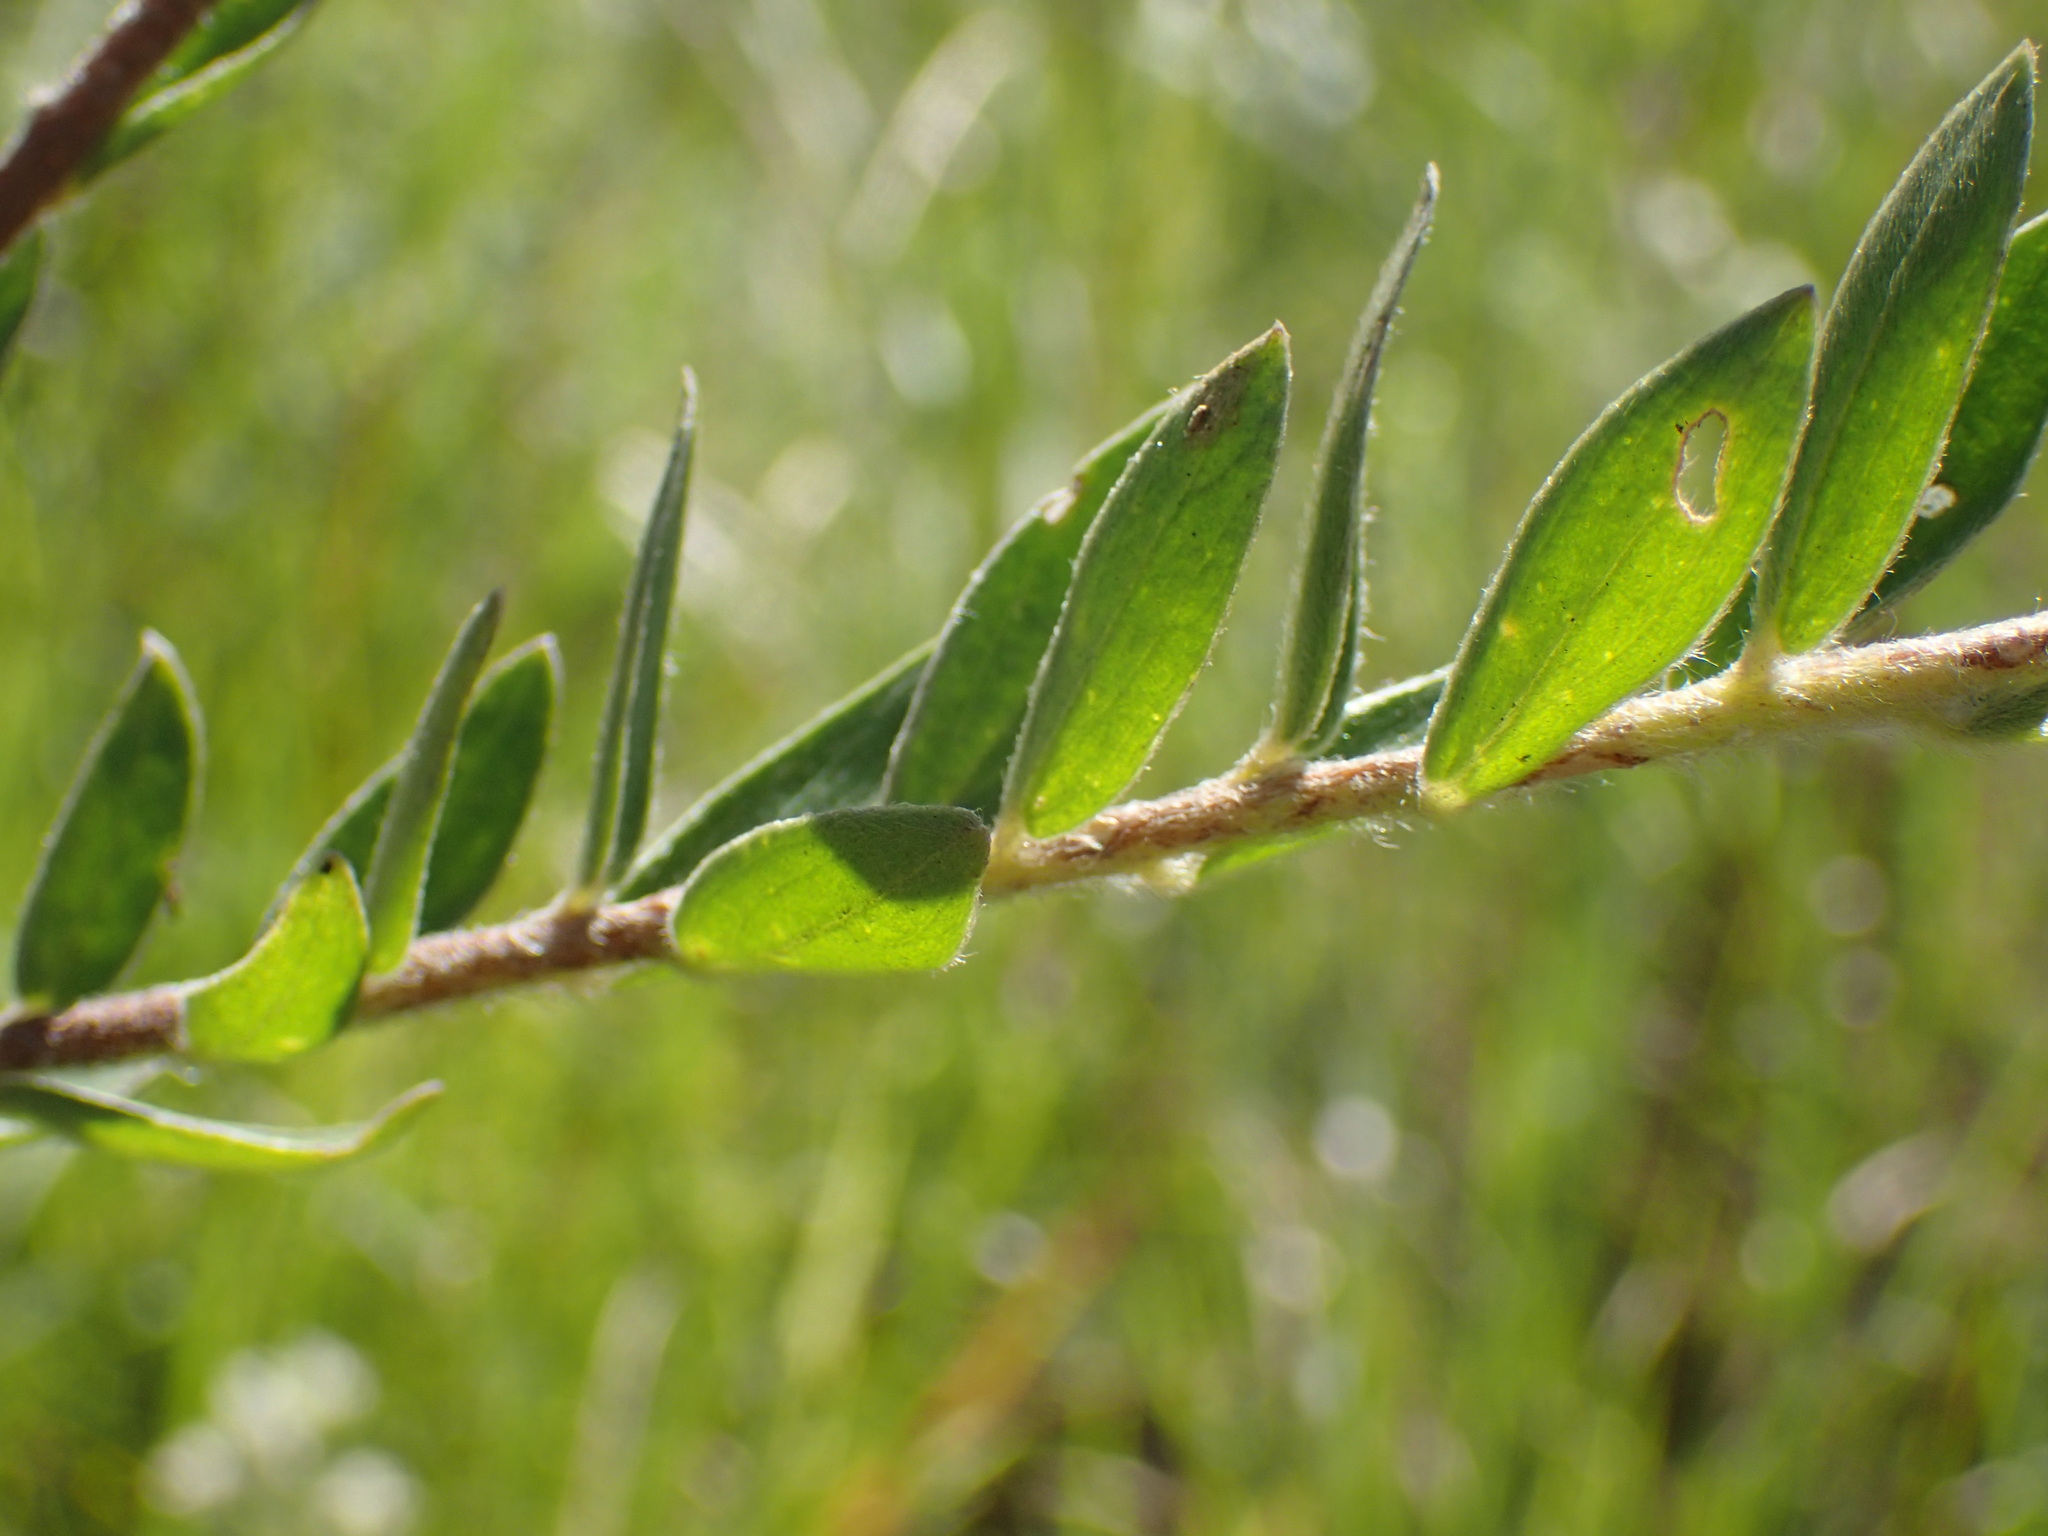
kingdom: Plantae
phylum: Tracheophyta
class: Magnoliopsida
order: Malvales
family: Thymelaeaceae
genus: Gnidia
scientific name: Gnidia calocephala
